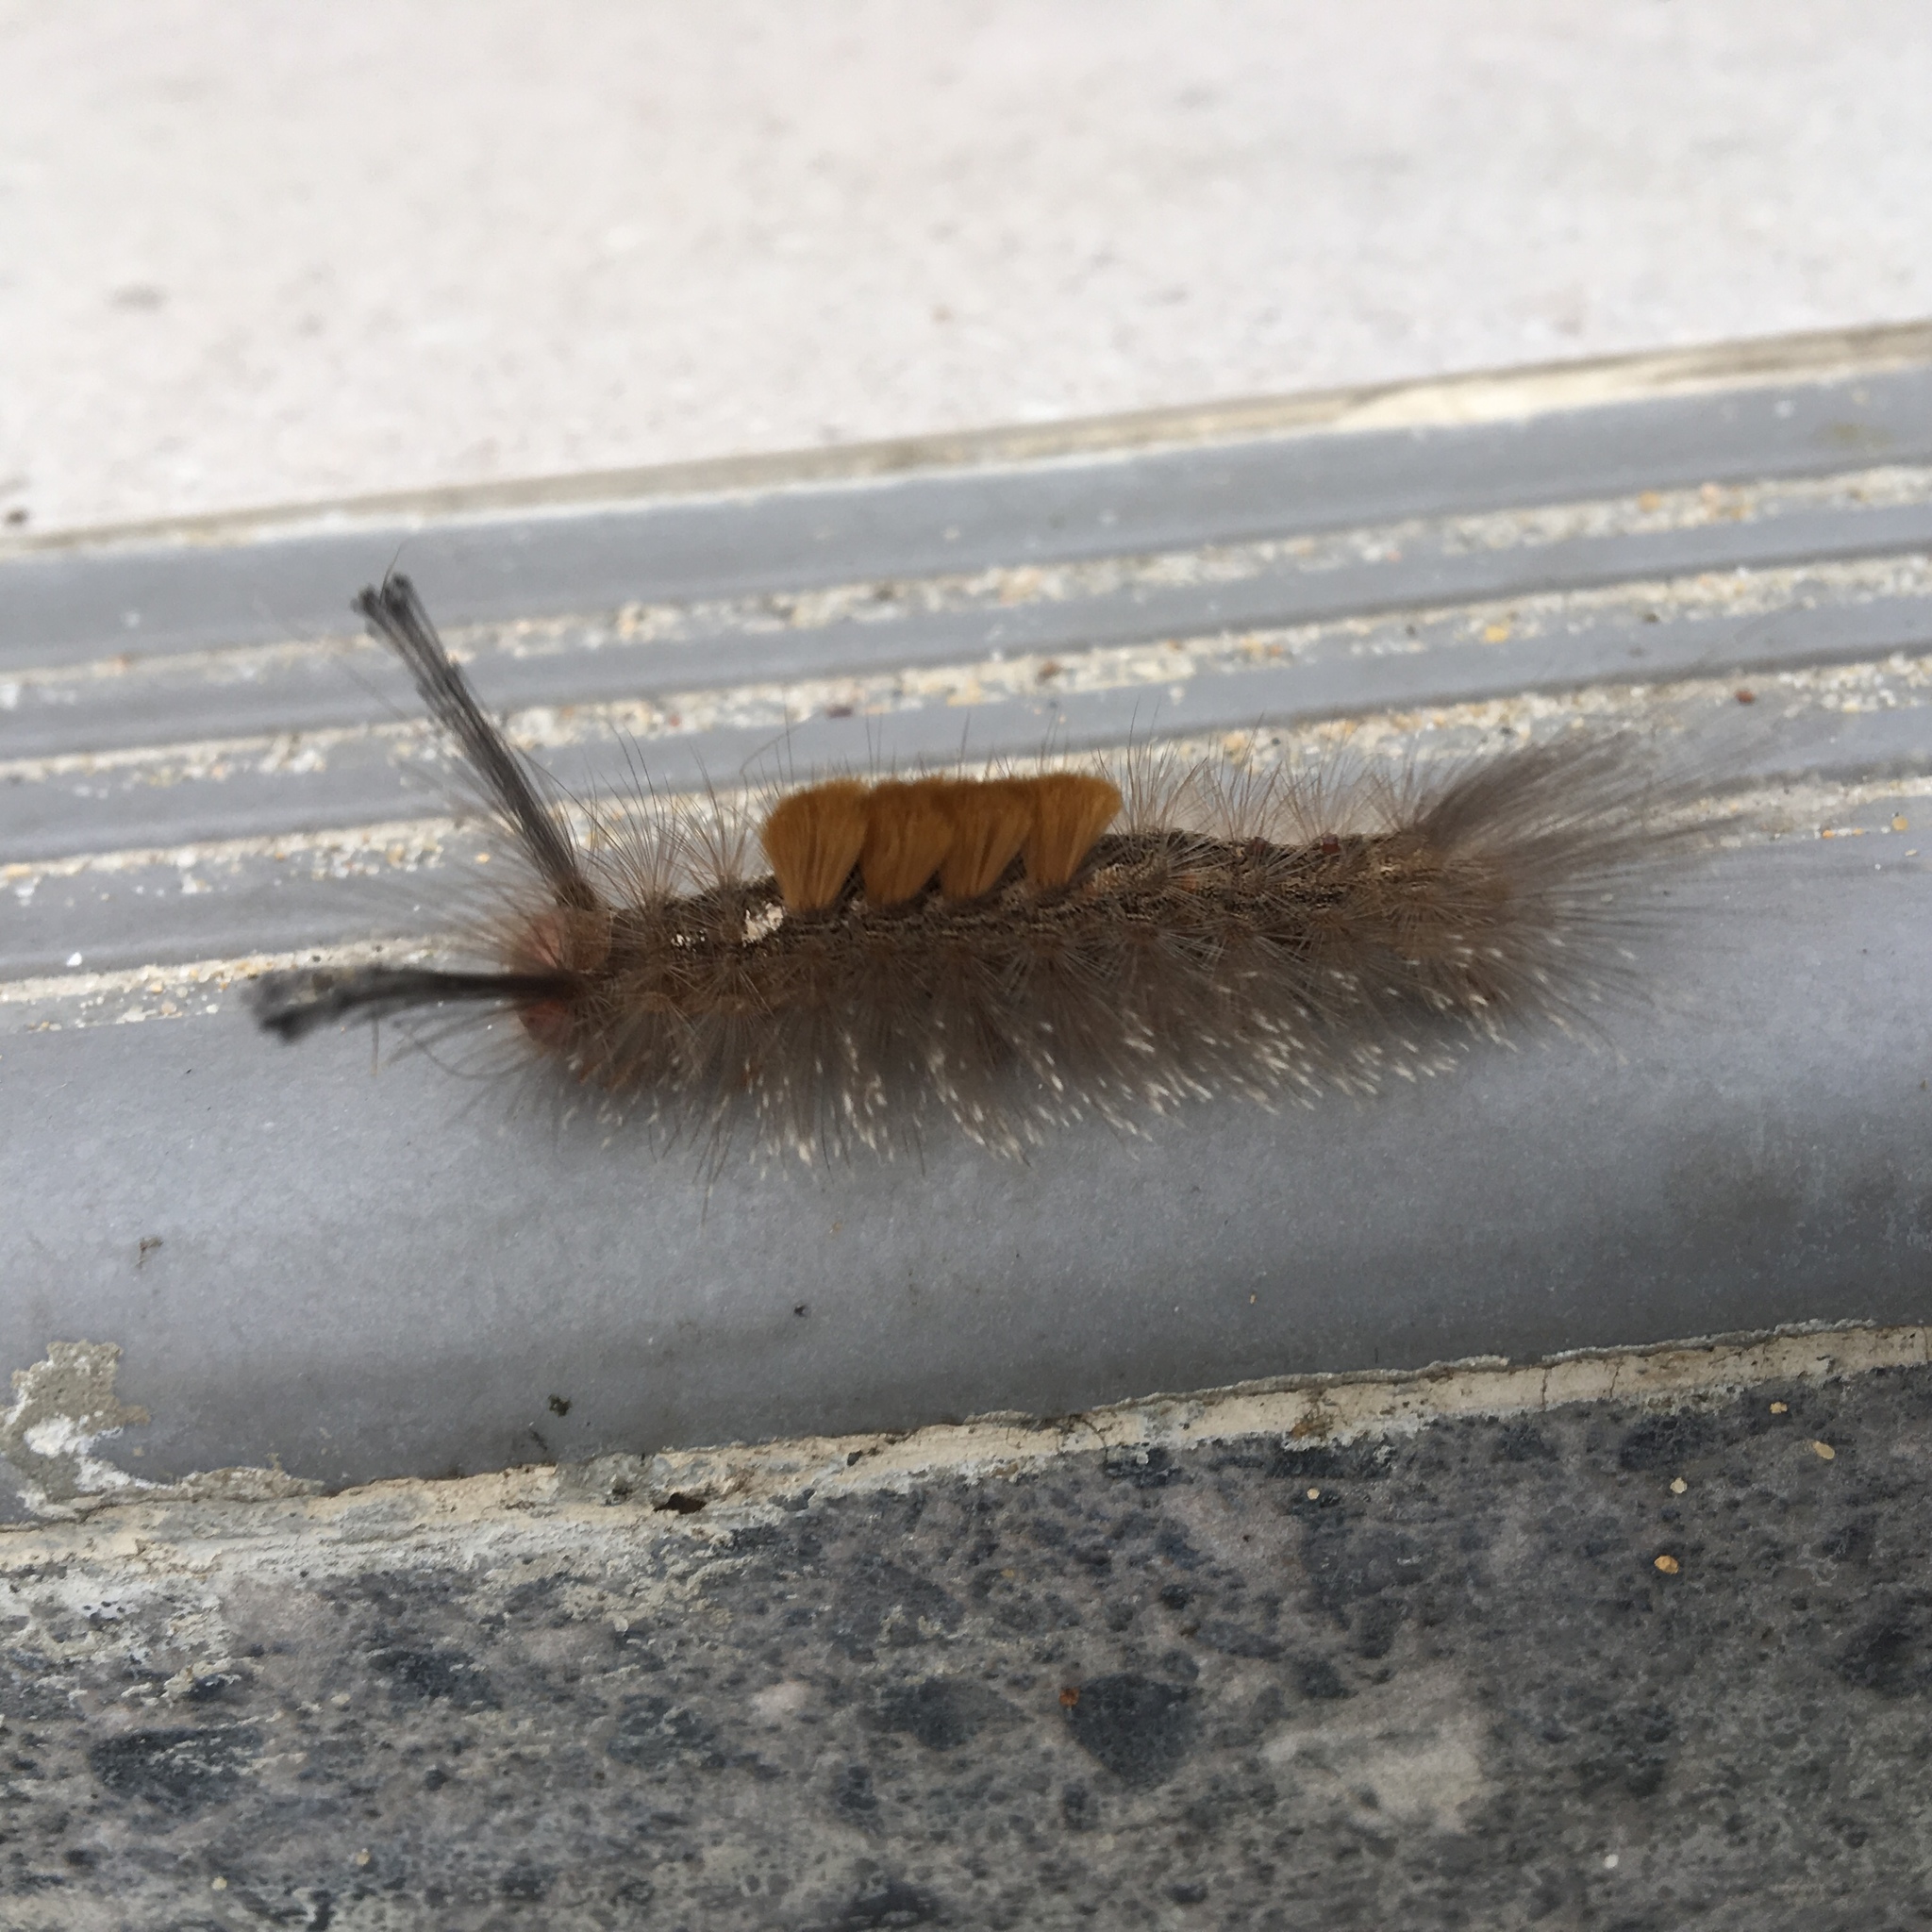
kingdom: Animalia
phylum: Arthropoda
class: Insecta
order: Lepidoptera
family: Erebidae
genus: Dasychira
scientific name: Dasychira chekiangensis
